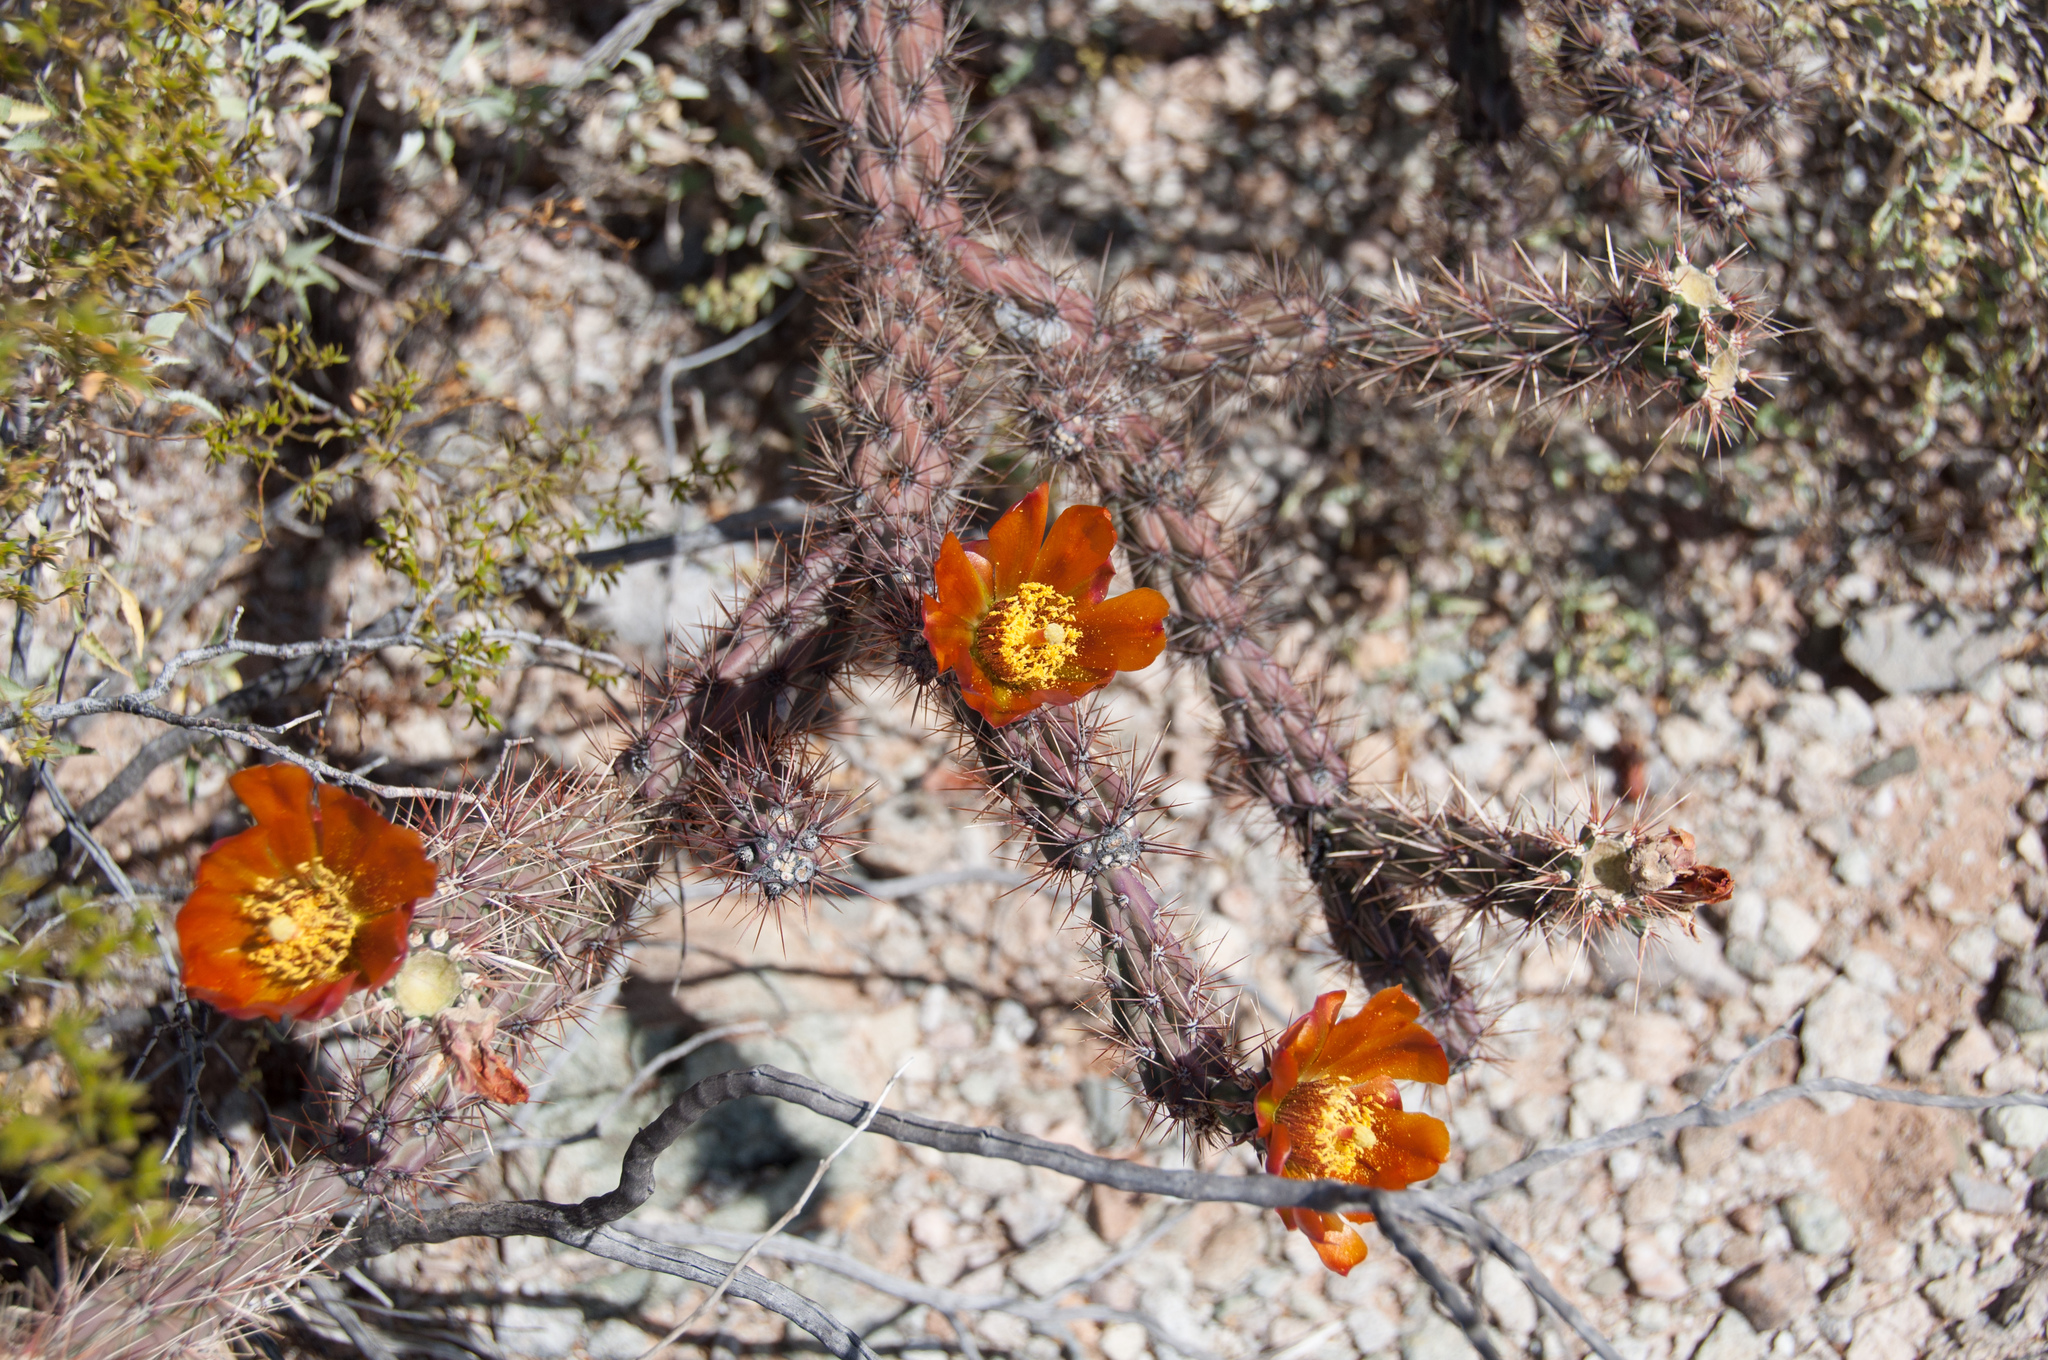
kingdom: Plantae
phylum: Tracheophyta
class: Magnoliopsida
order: Caryophyllales
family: Cactaceae
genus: Cylindropuntia
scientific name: Cylindropuntia thurberi
